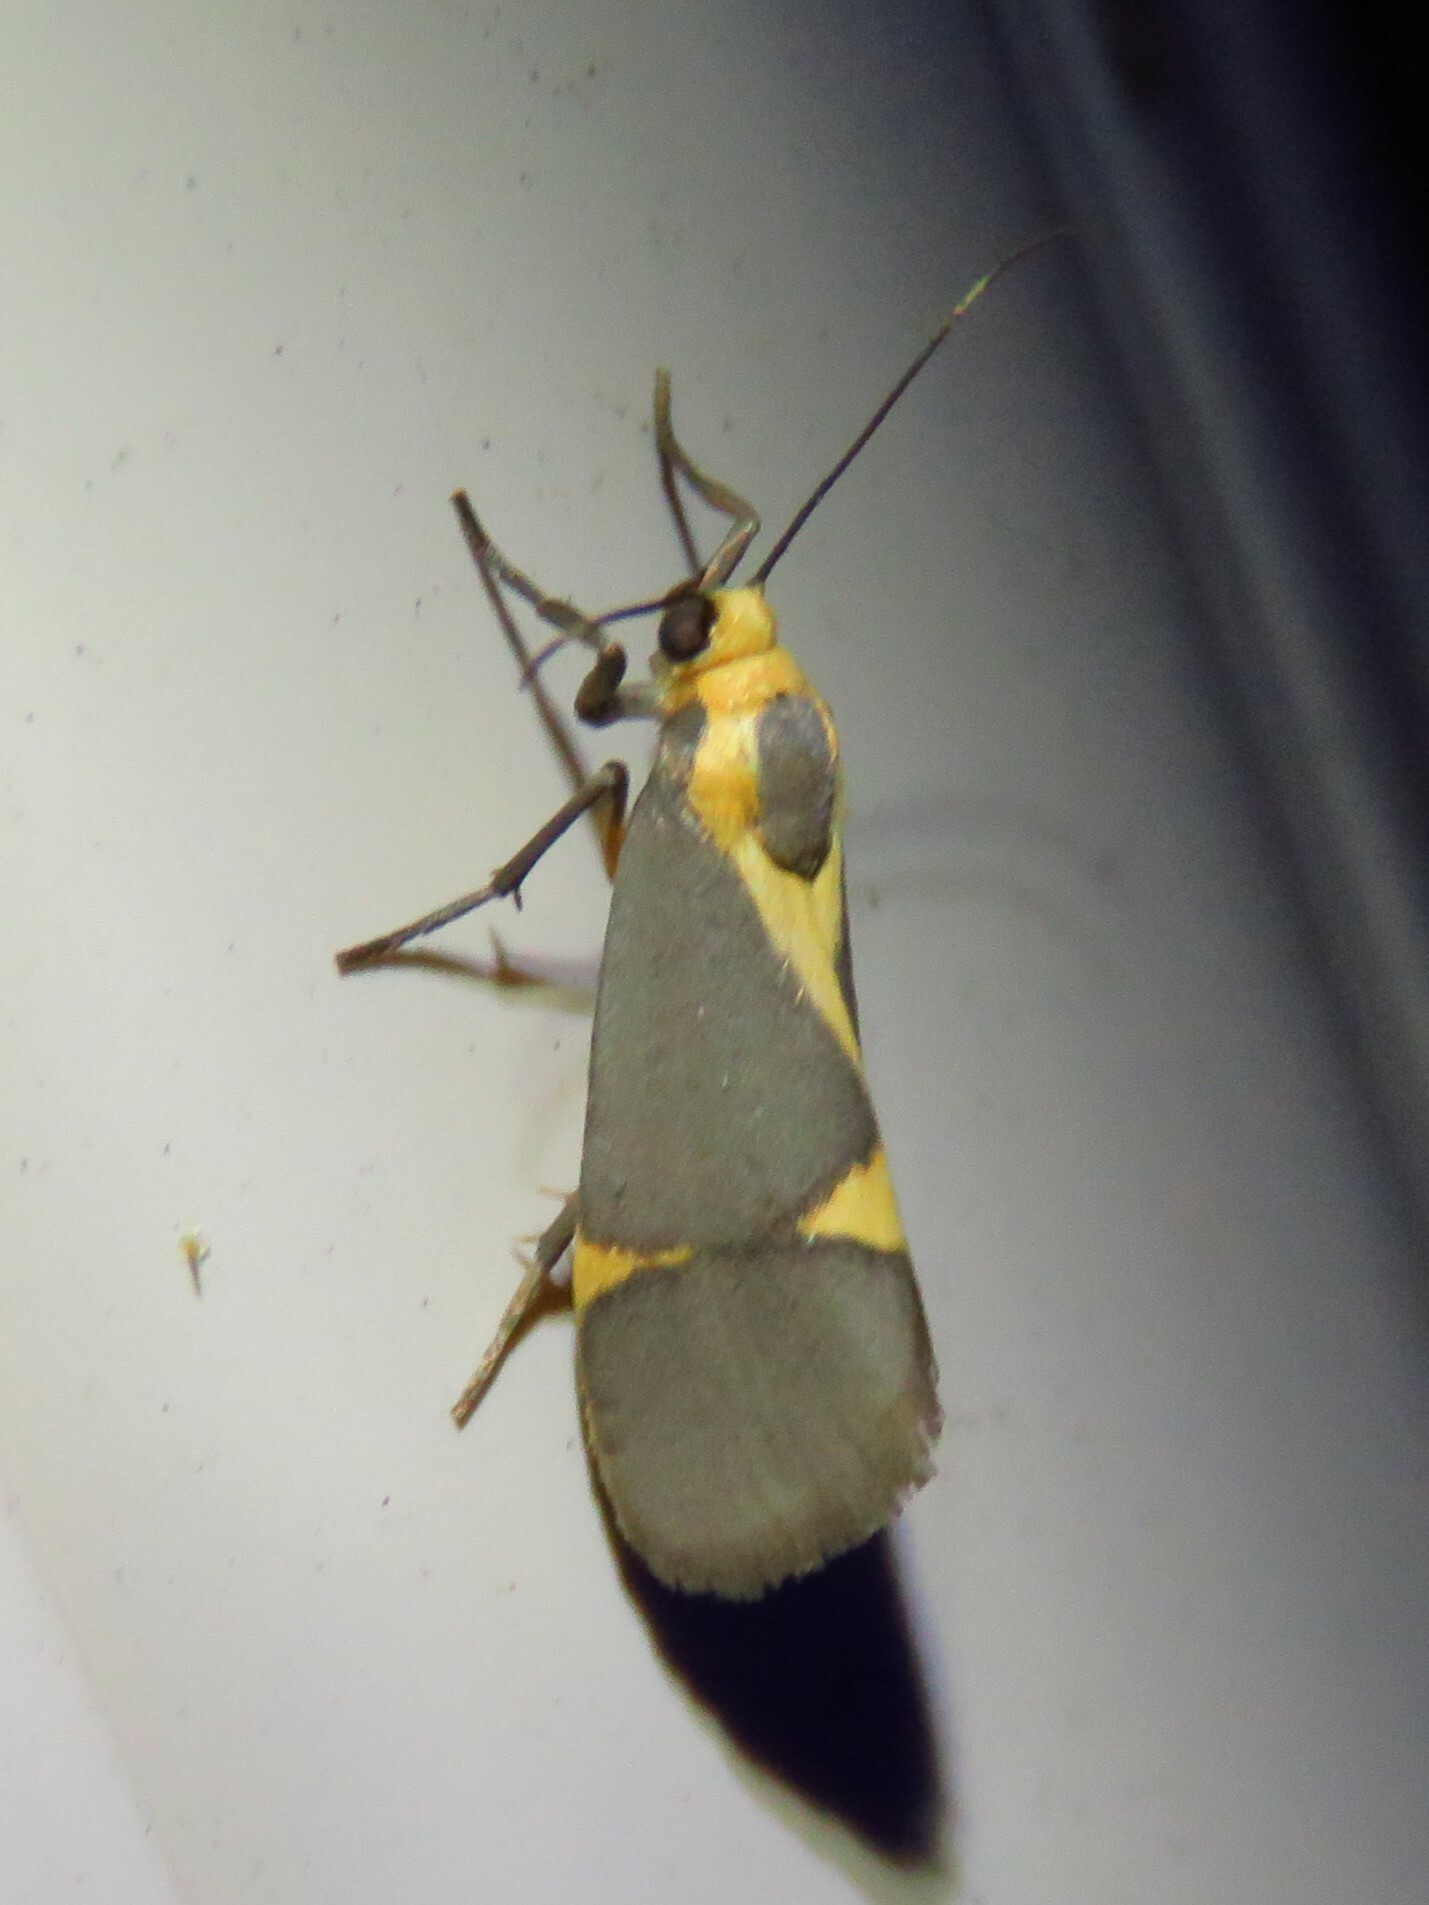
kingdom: Animalia
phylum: Arthropoda
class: Insecta
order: Lepidoptera
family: Erebidae
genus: Cisthene
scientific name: Cisthene tenuifascia
